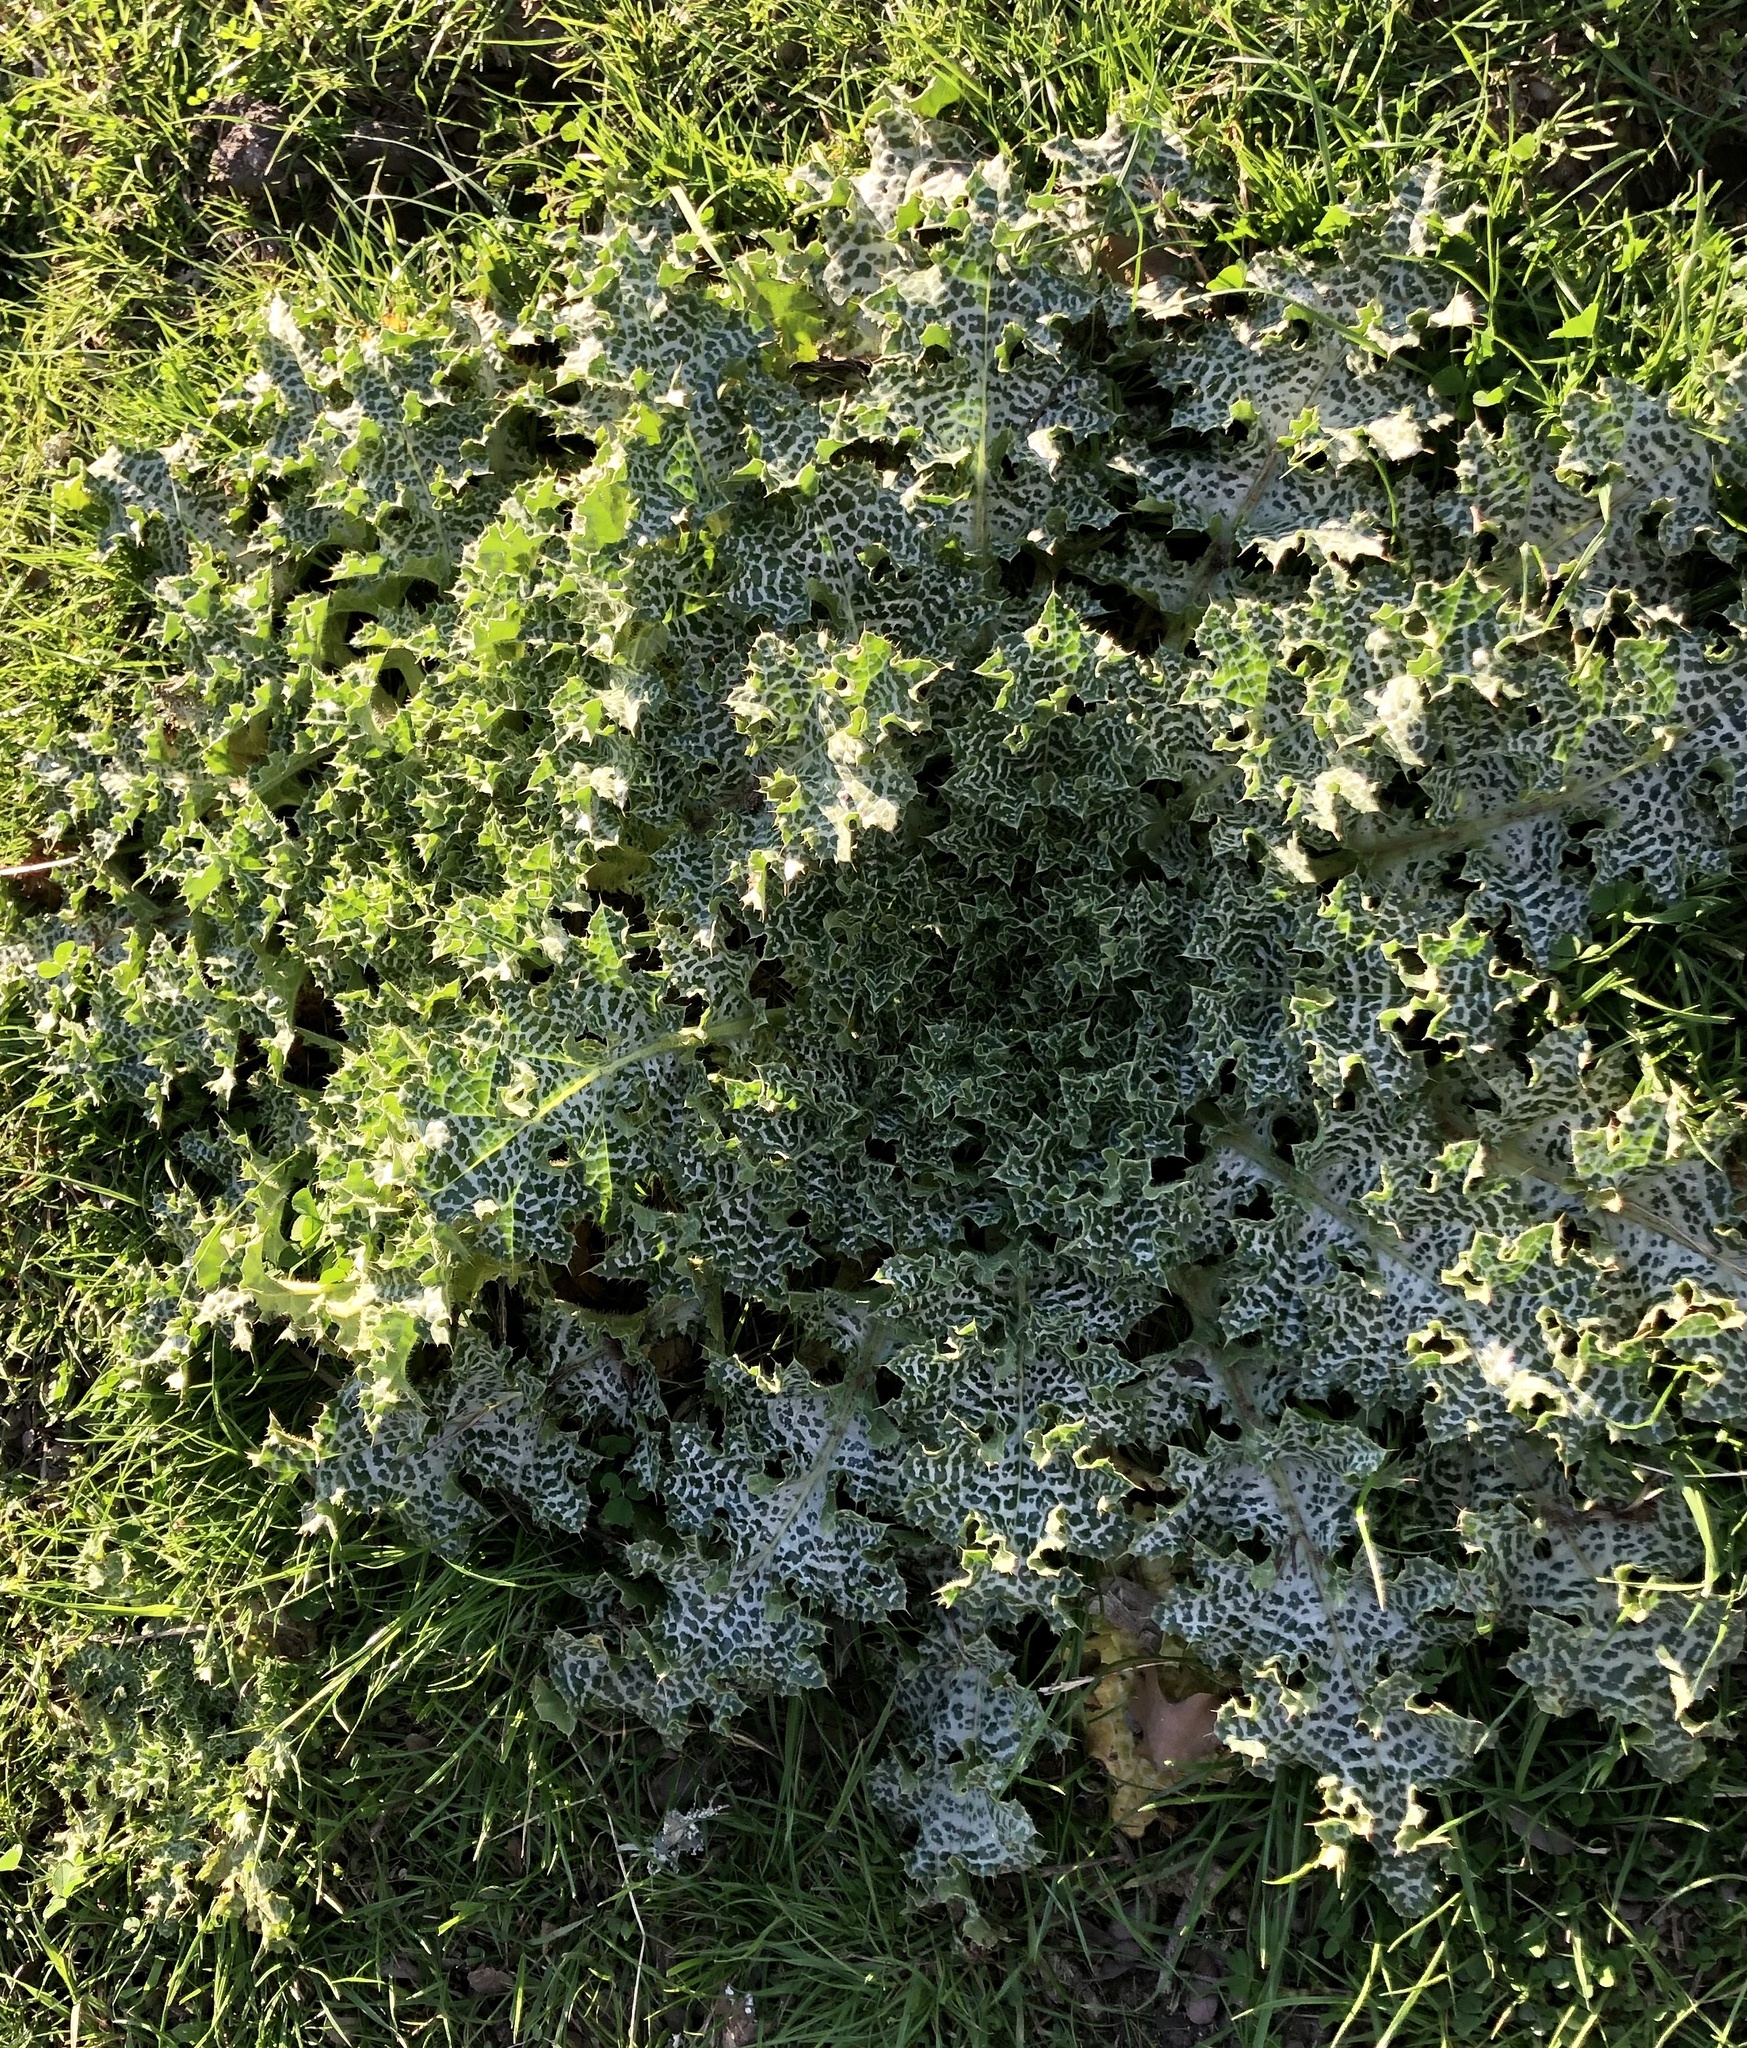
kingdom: Plantae
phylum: Tracheophyta
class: Magnoliopsida
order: Asterales
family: Asteraceae
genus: Silybum
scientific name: Silybum marianum
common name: Milk thistle
